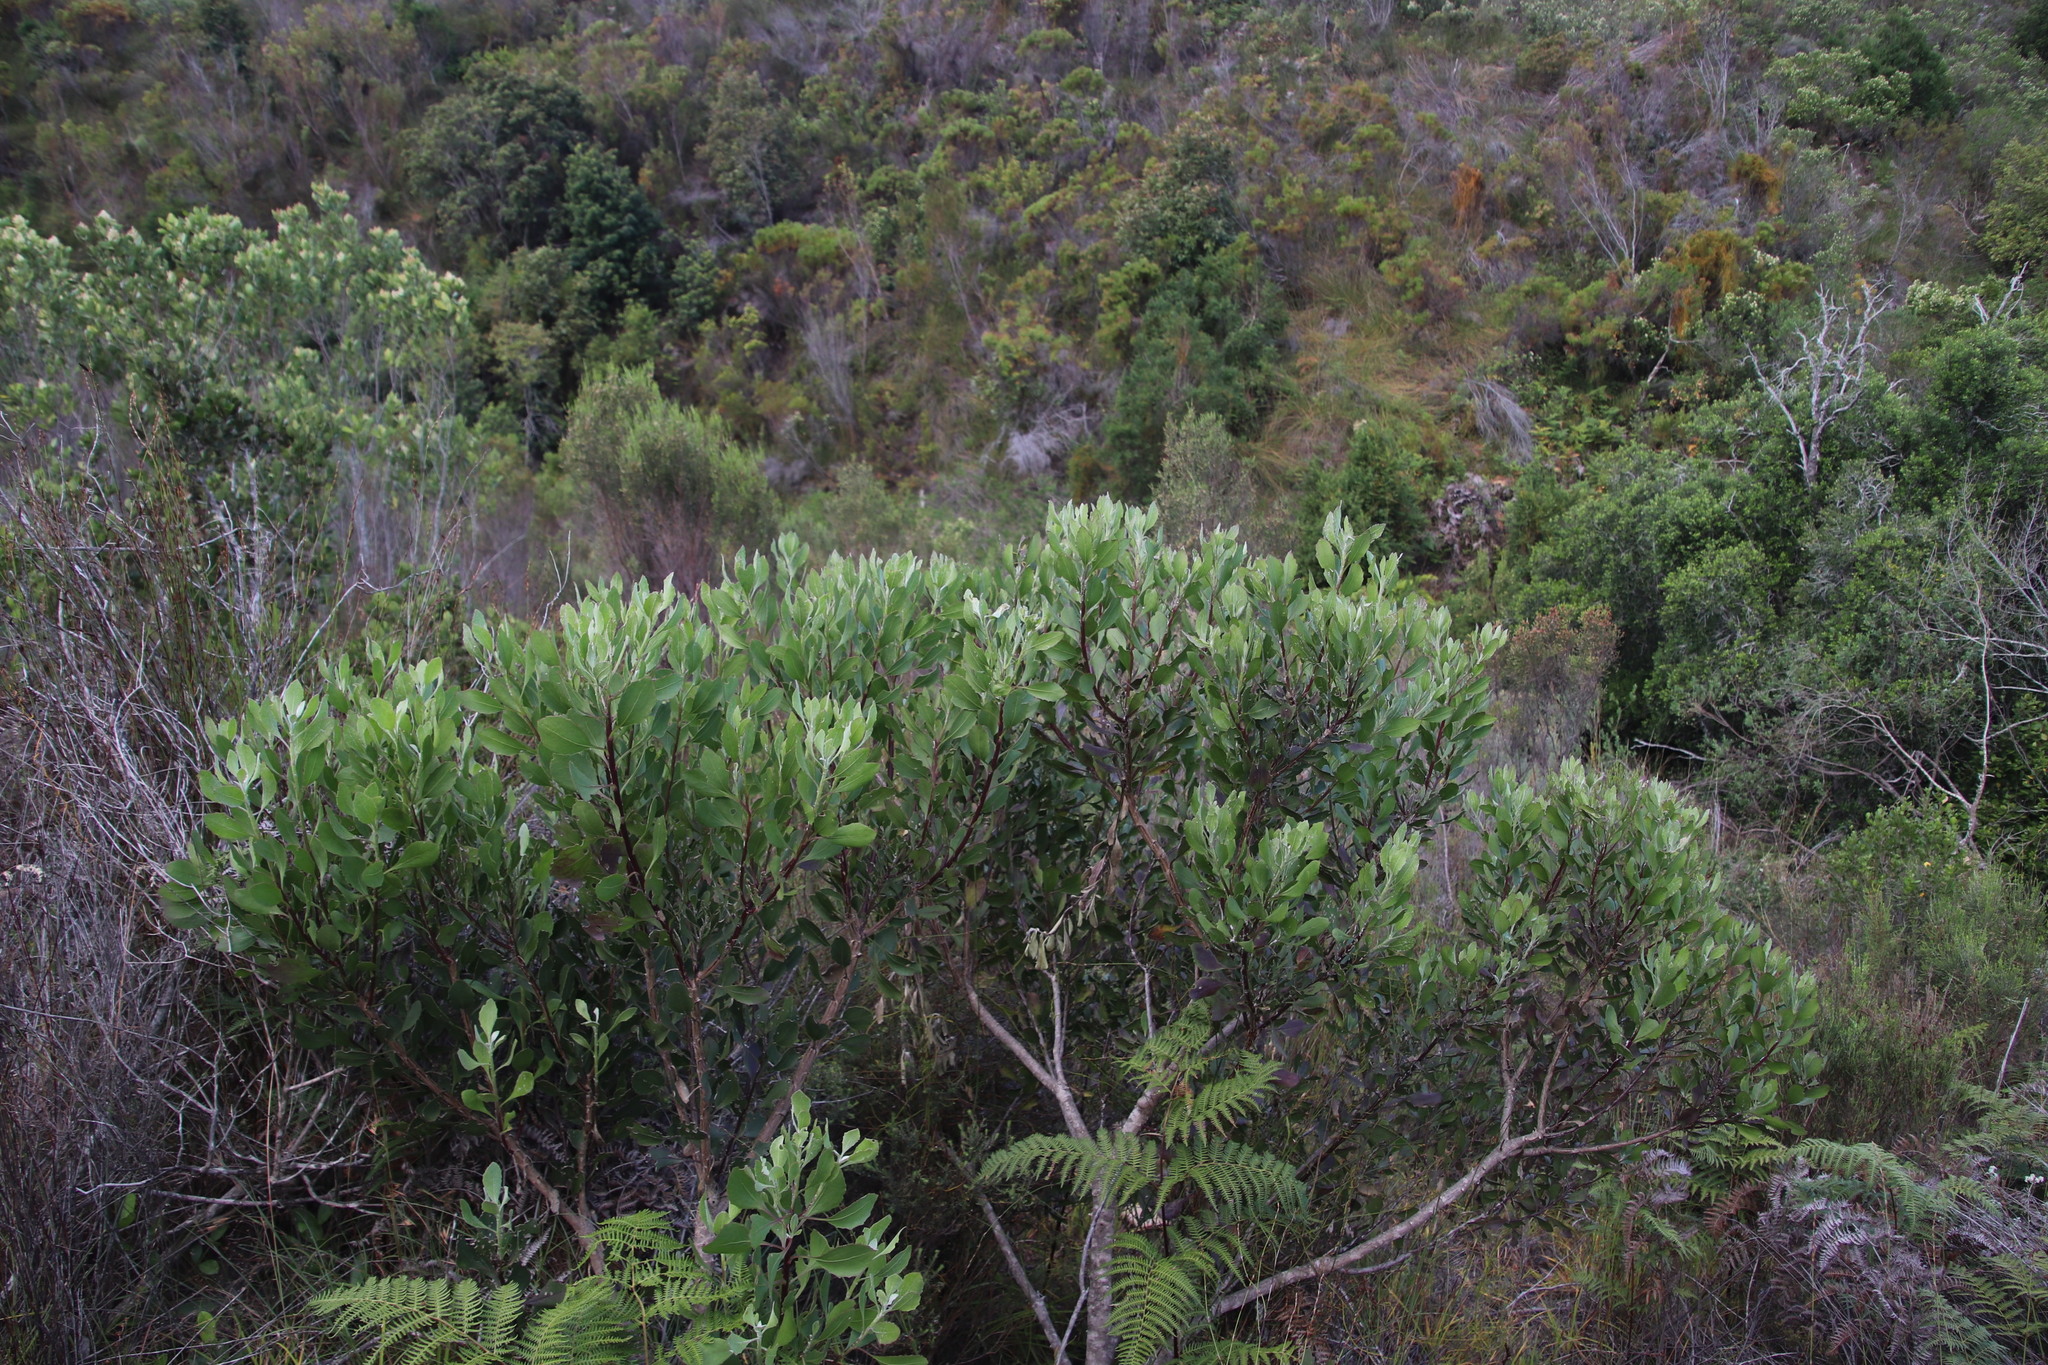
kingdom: Plantae
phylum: Tracheophyta
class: Magnoliopsida
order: Asterales
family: Asteraceae
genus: Osteospermum
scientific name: Osteospermum moniliferum
